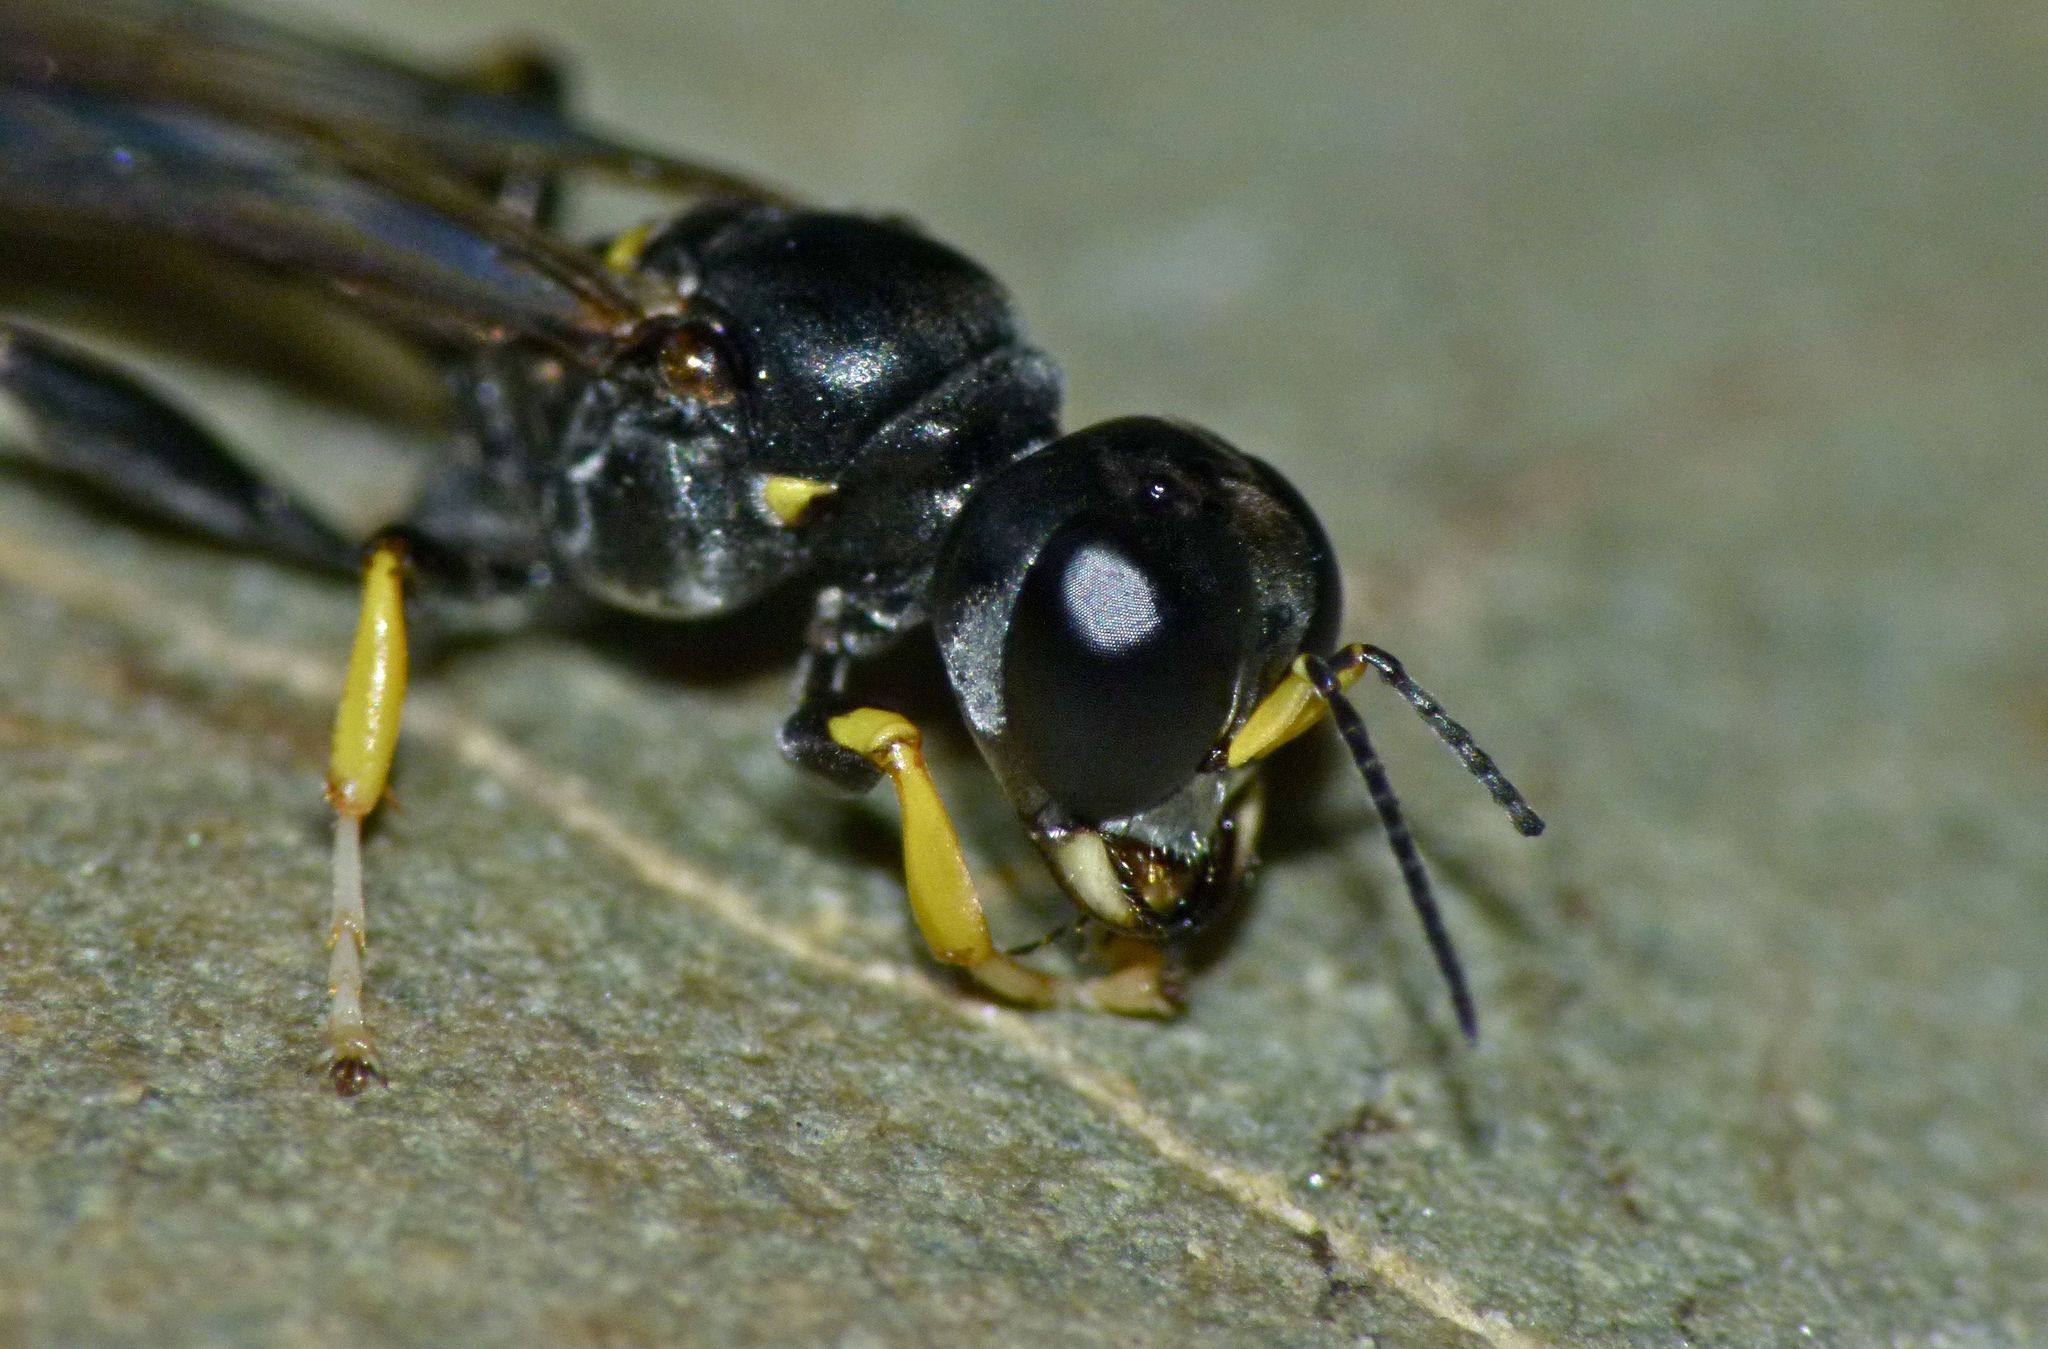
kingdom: Animalia
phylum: Arthropoda
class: Insecta
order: Hymenoptera
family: Crabronidae
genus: Rhopalum
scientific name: Rhopalum aucklandi
